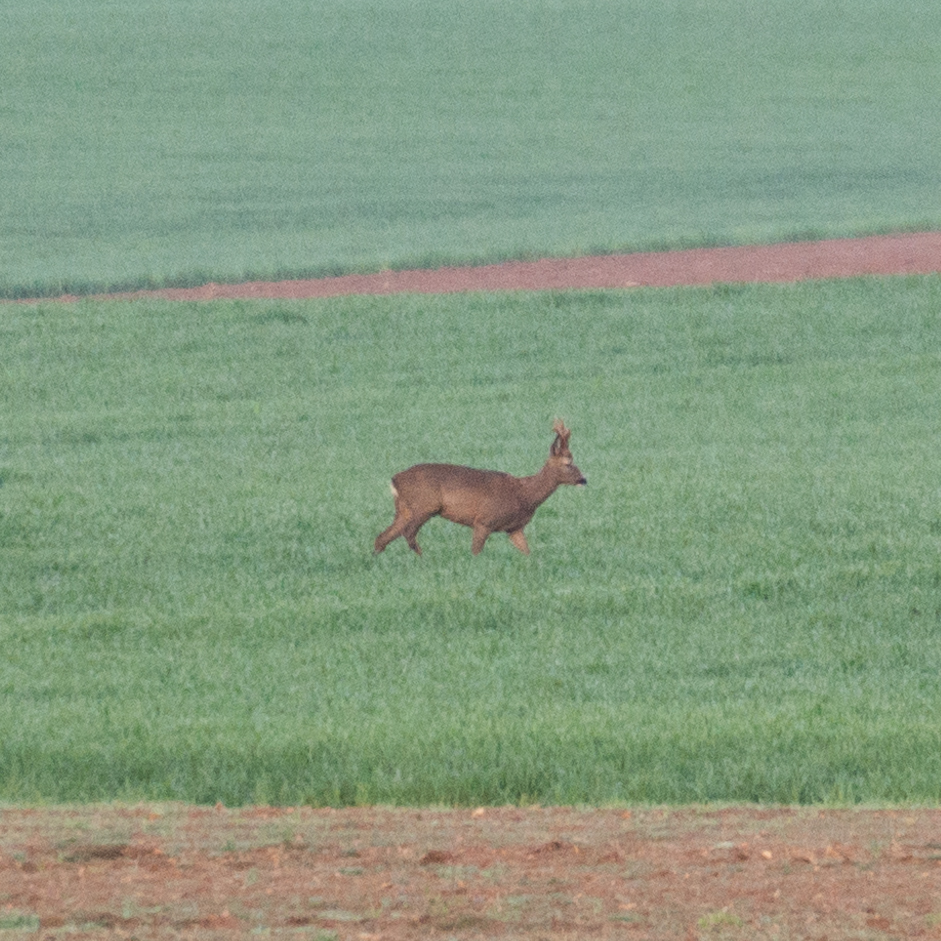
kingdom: Animalia
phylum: Chordata
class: Mammalia
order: Artiodactyla
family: Cervidae
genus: Capreolus
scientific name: Capreolus capreolus
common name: Western roe deer
